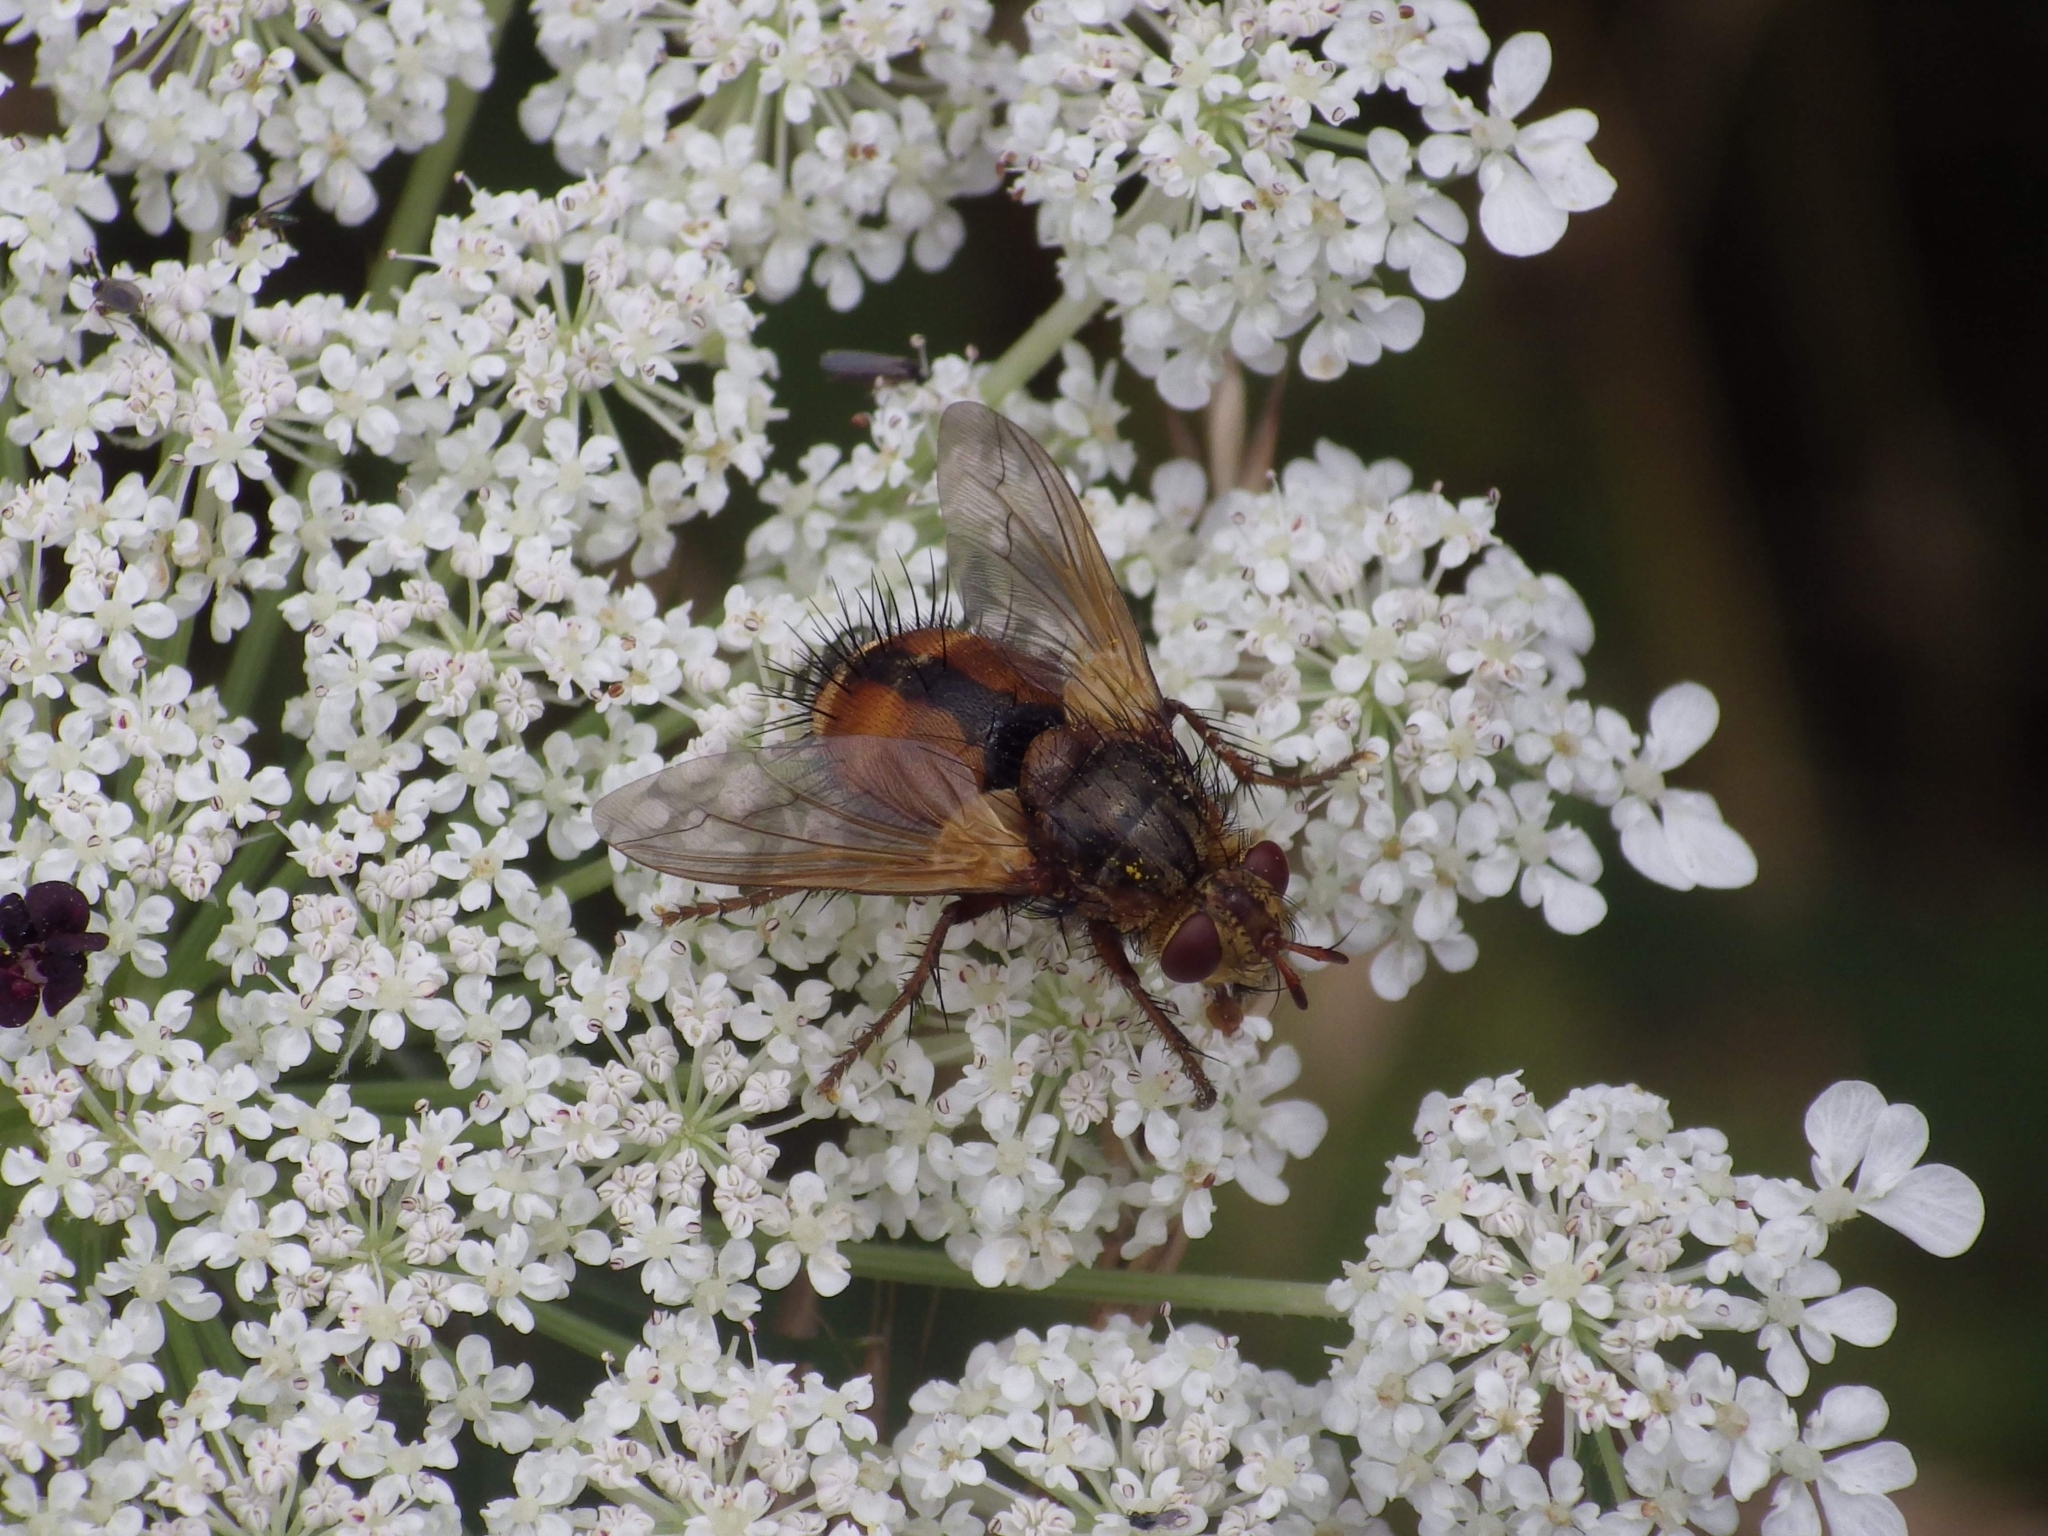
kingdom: Animalia
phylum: Arthropoda
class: Insecta
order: Diptera
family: Tachinidae
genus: Tachina
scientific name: Tachina fera
